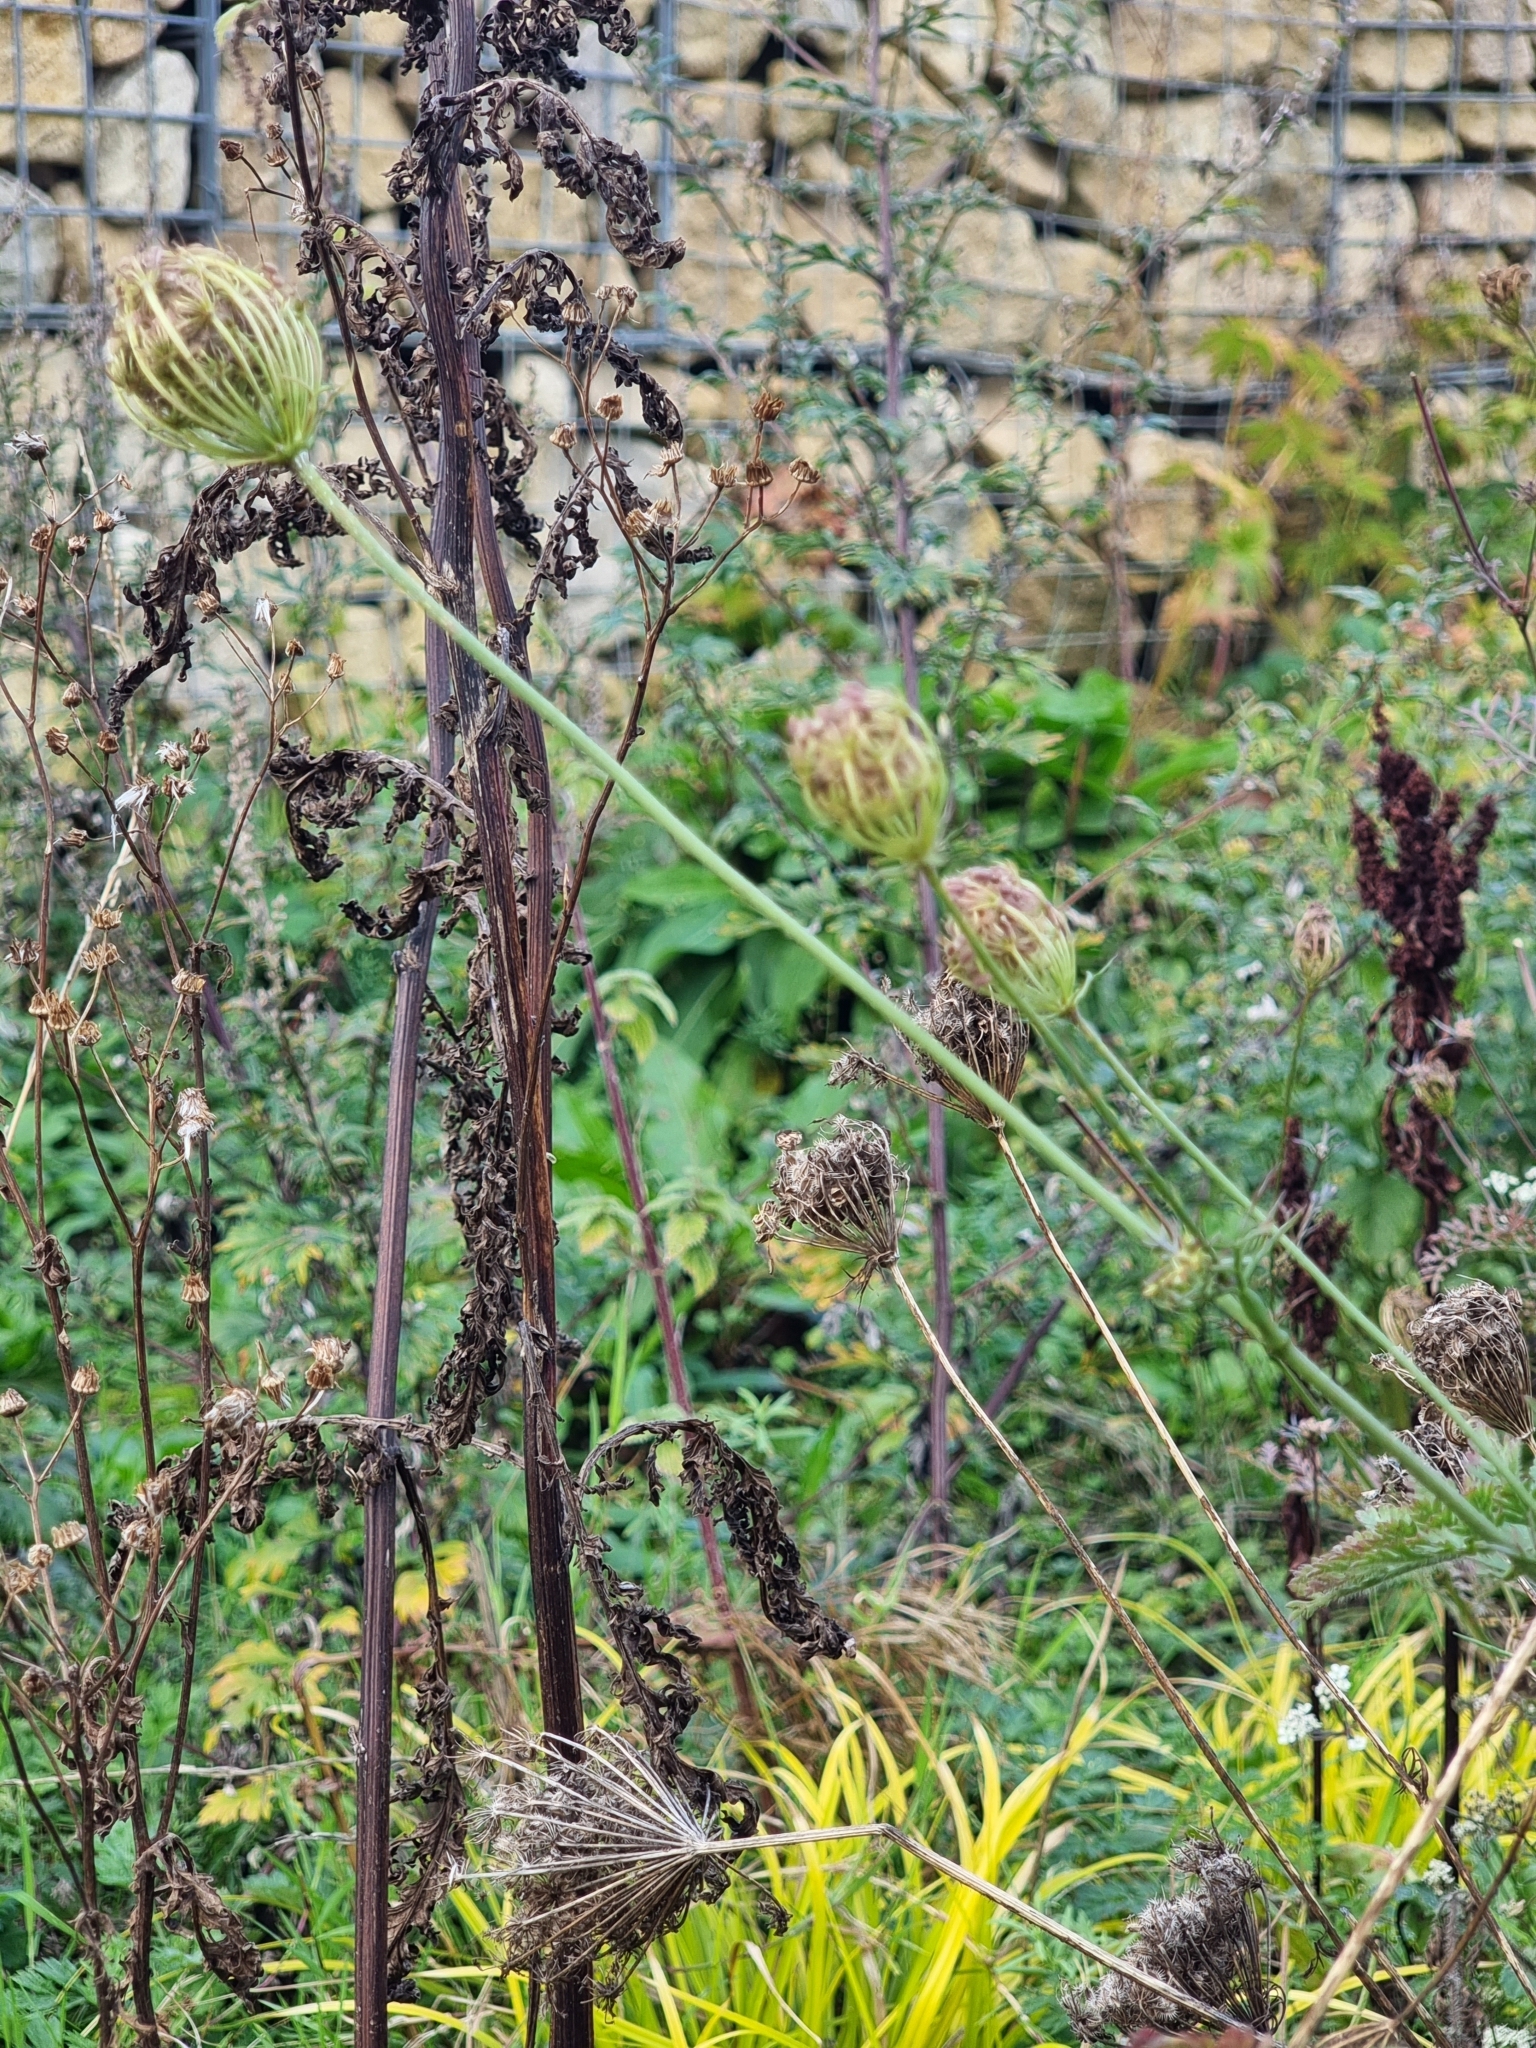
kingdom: Plantae
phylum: Tracheophyta
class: Magnoliopsida
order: Apiales
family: Apiaceae
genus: Daucus
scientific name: Daucus carota
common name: Wild carrot
